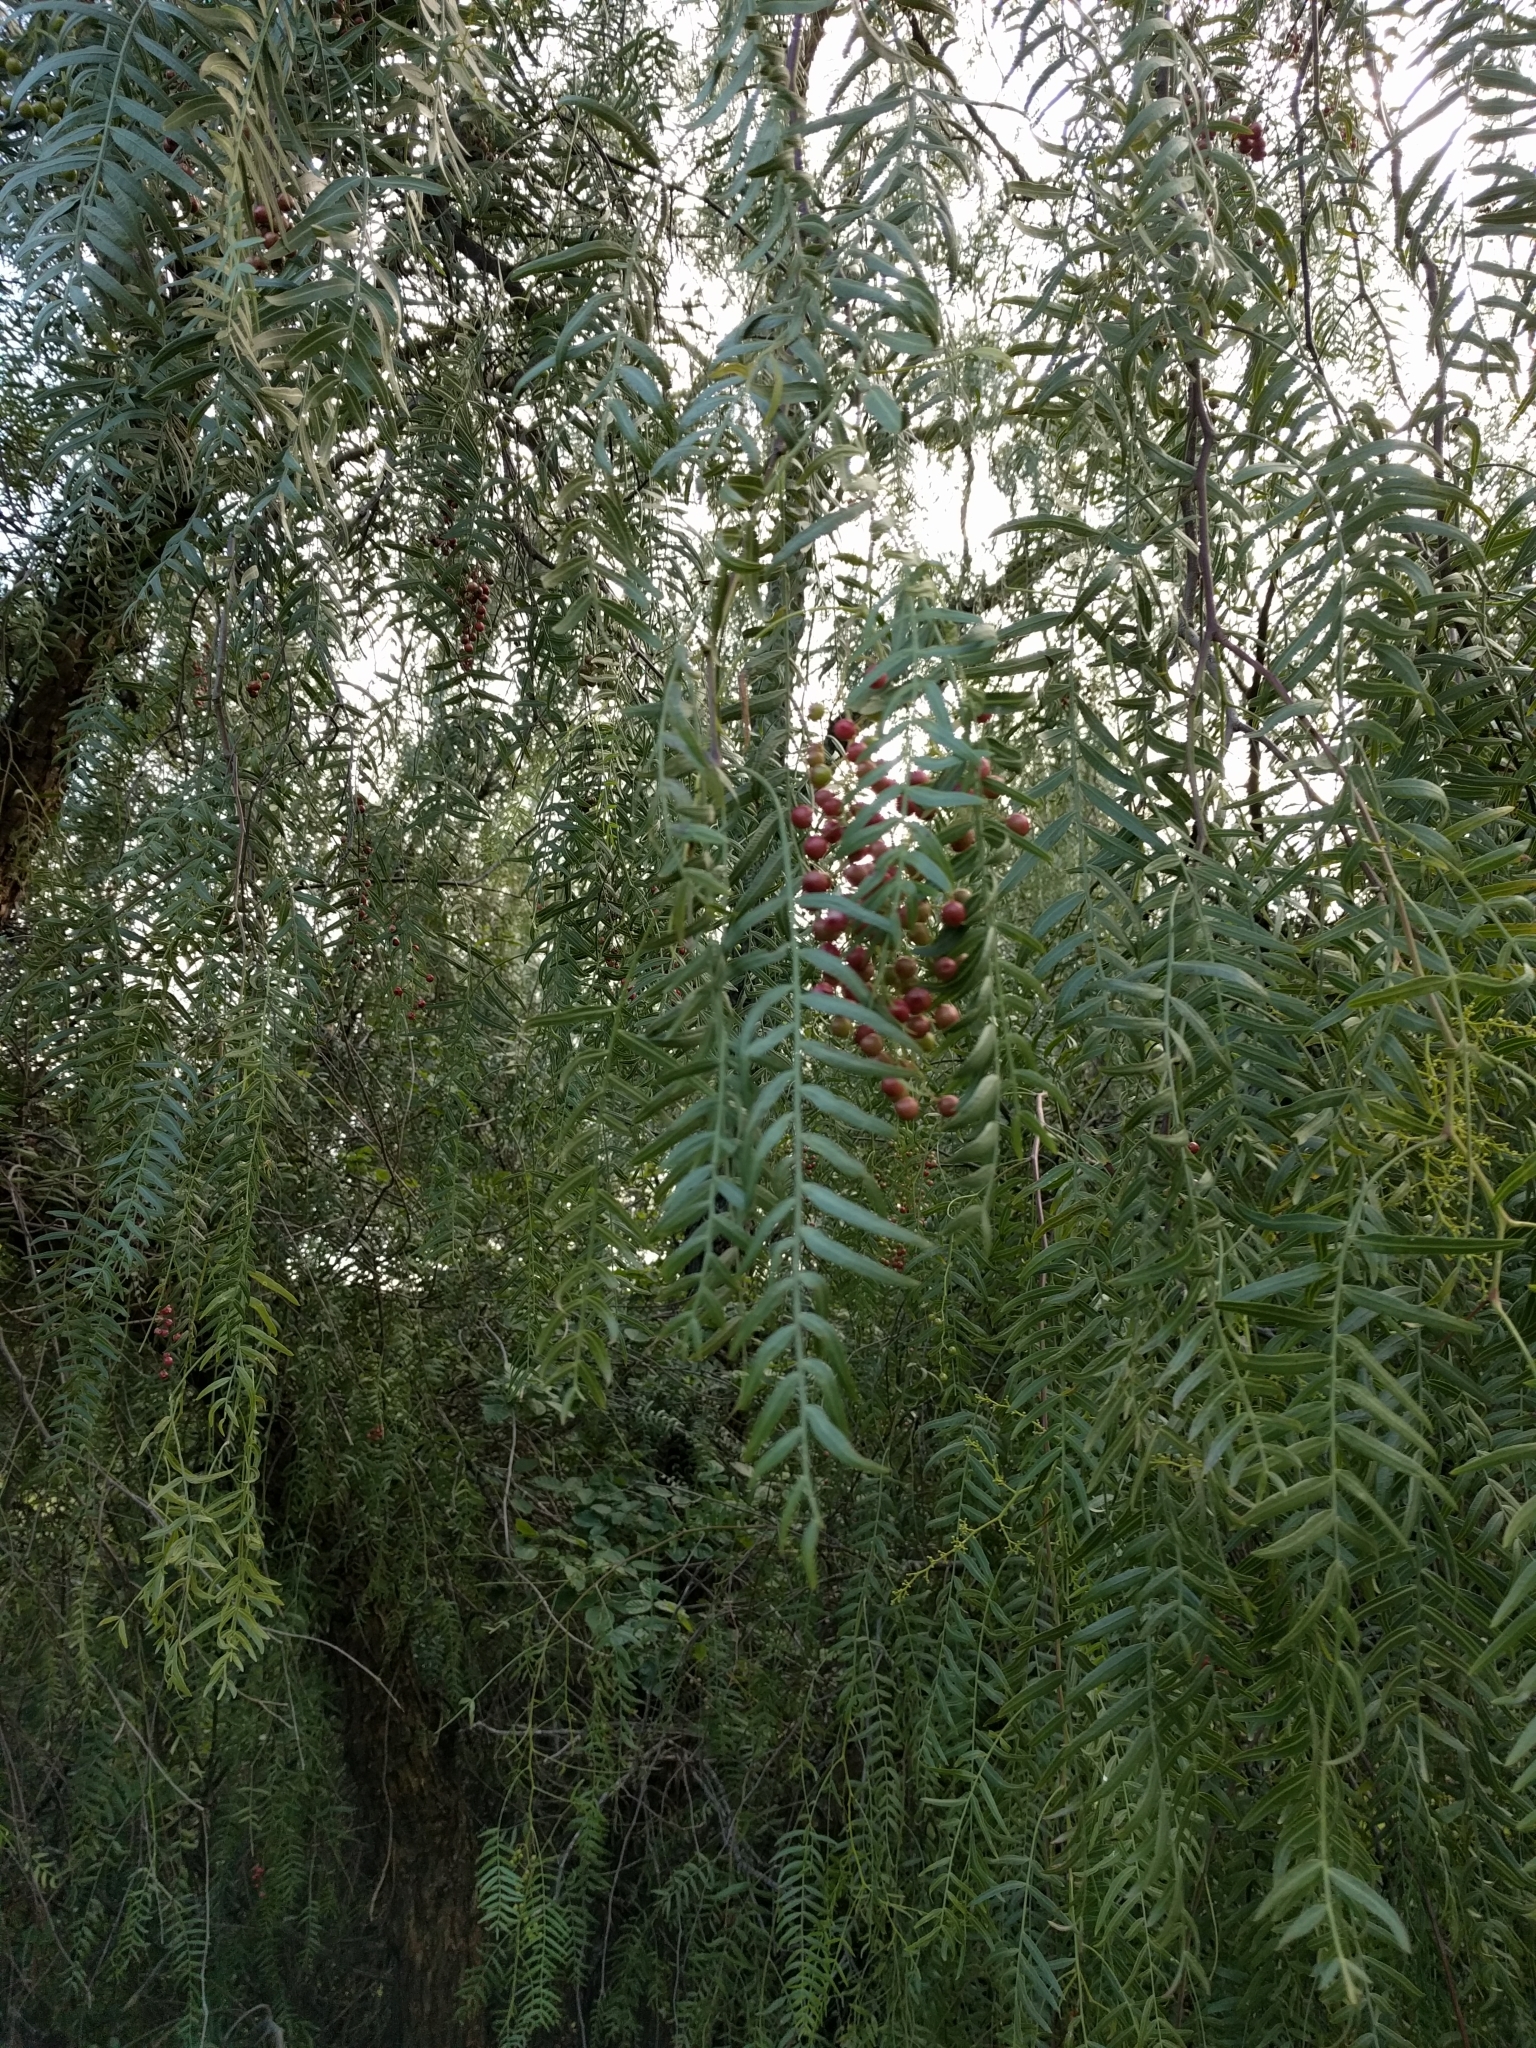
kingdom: Plantae
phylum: Tracheophyta
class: Magnoliopsida
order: Sapindales
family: Anacardiaceae
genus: Schinus
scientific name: Schinus molle
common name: Peruvian peppertree
